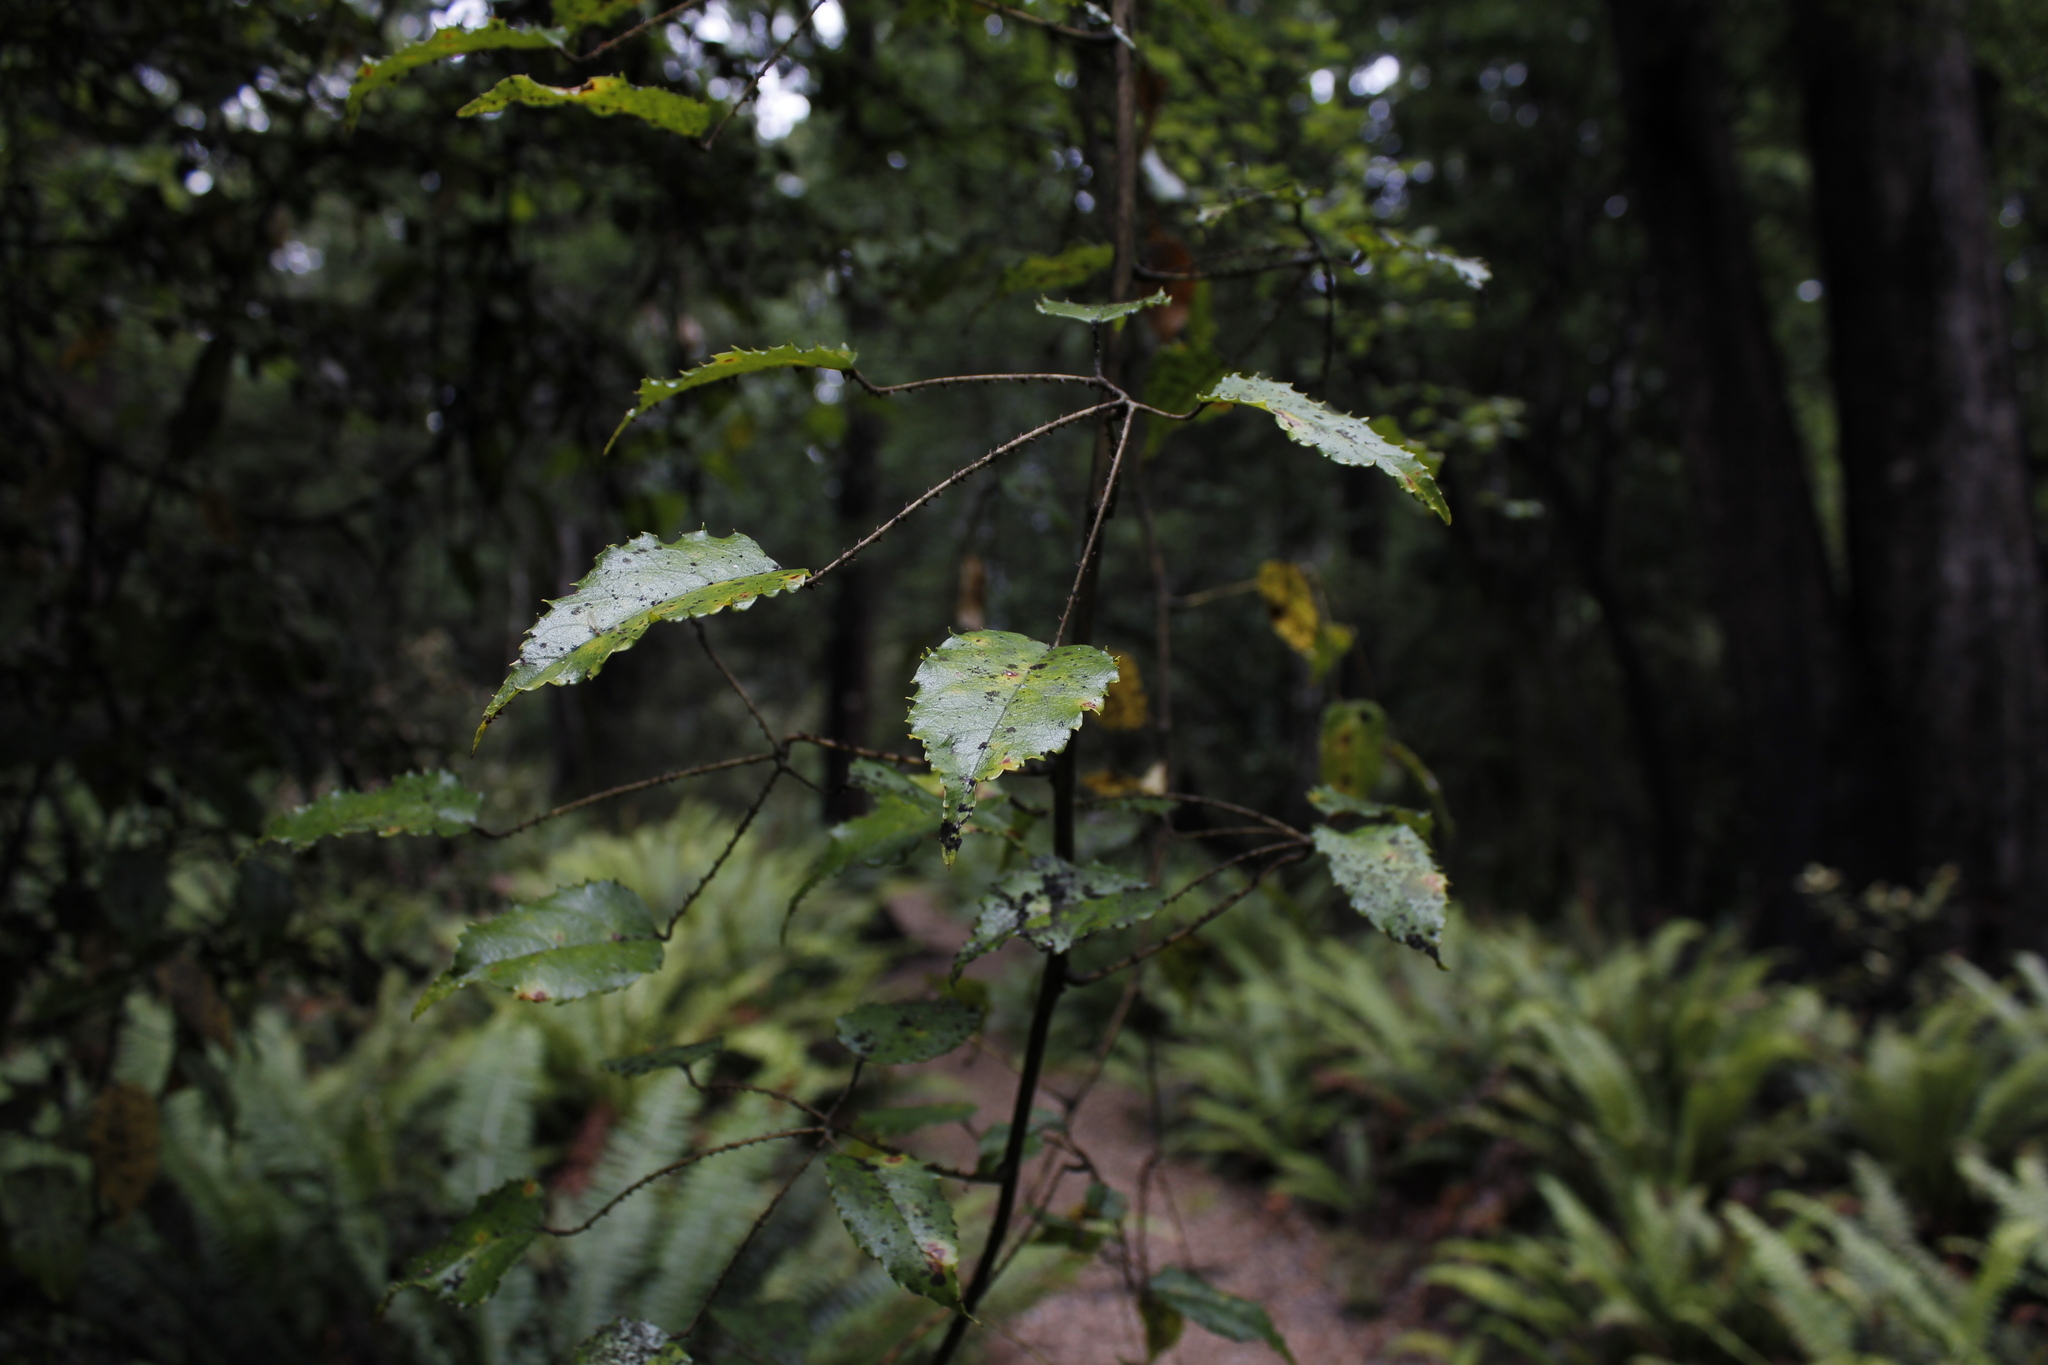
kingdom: Plantae
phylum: Tracheophyta
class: Magnoliopsida
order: Rosales
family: Rosaceae
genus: Rubus
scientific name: Rubus cissoides
